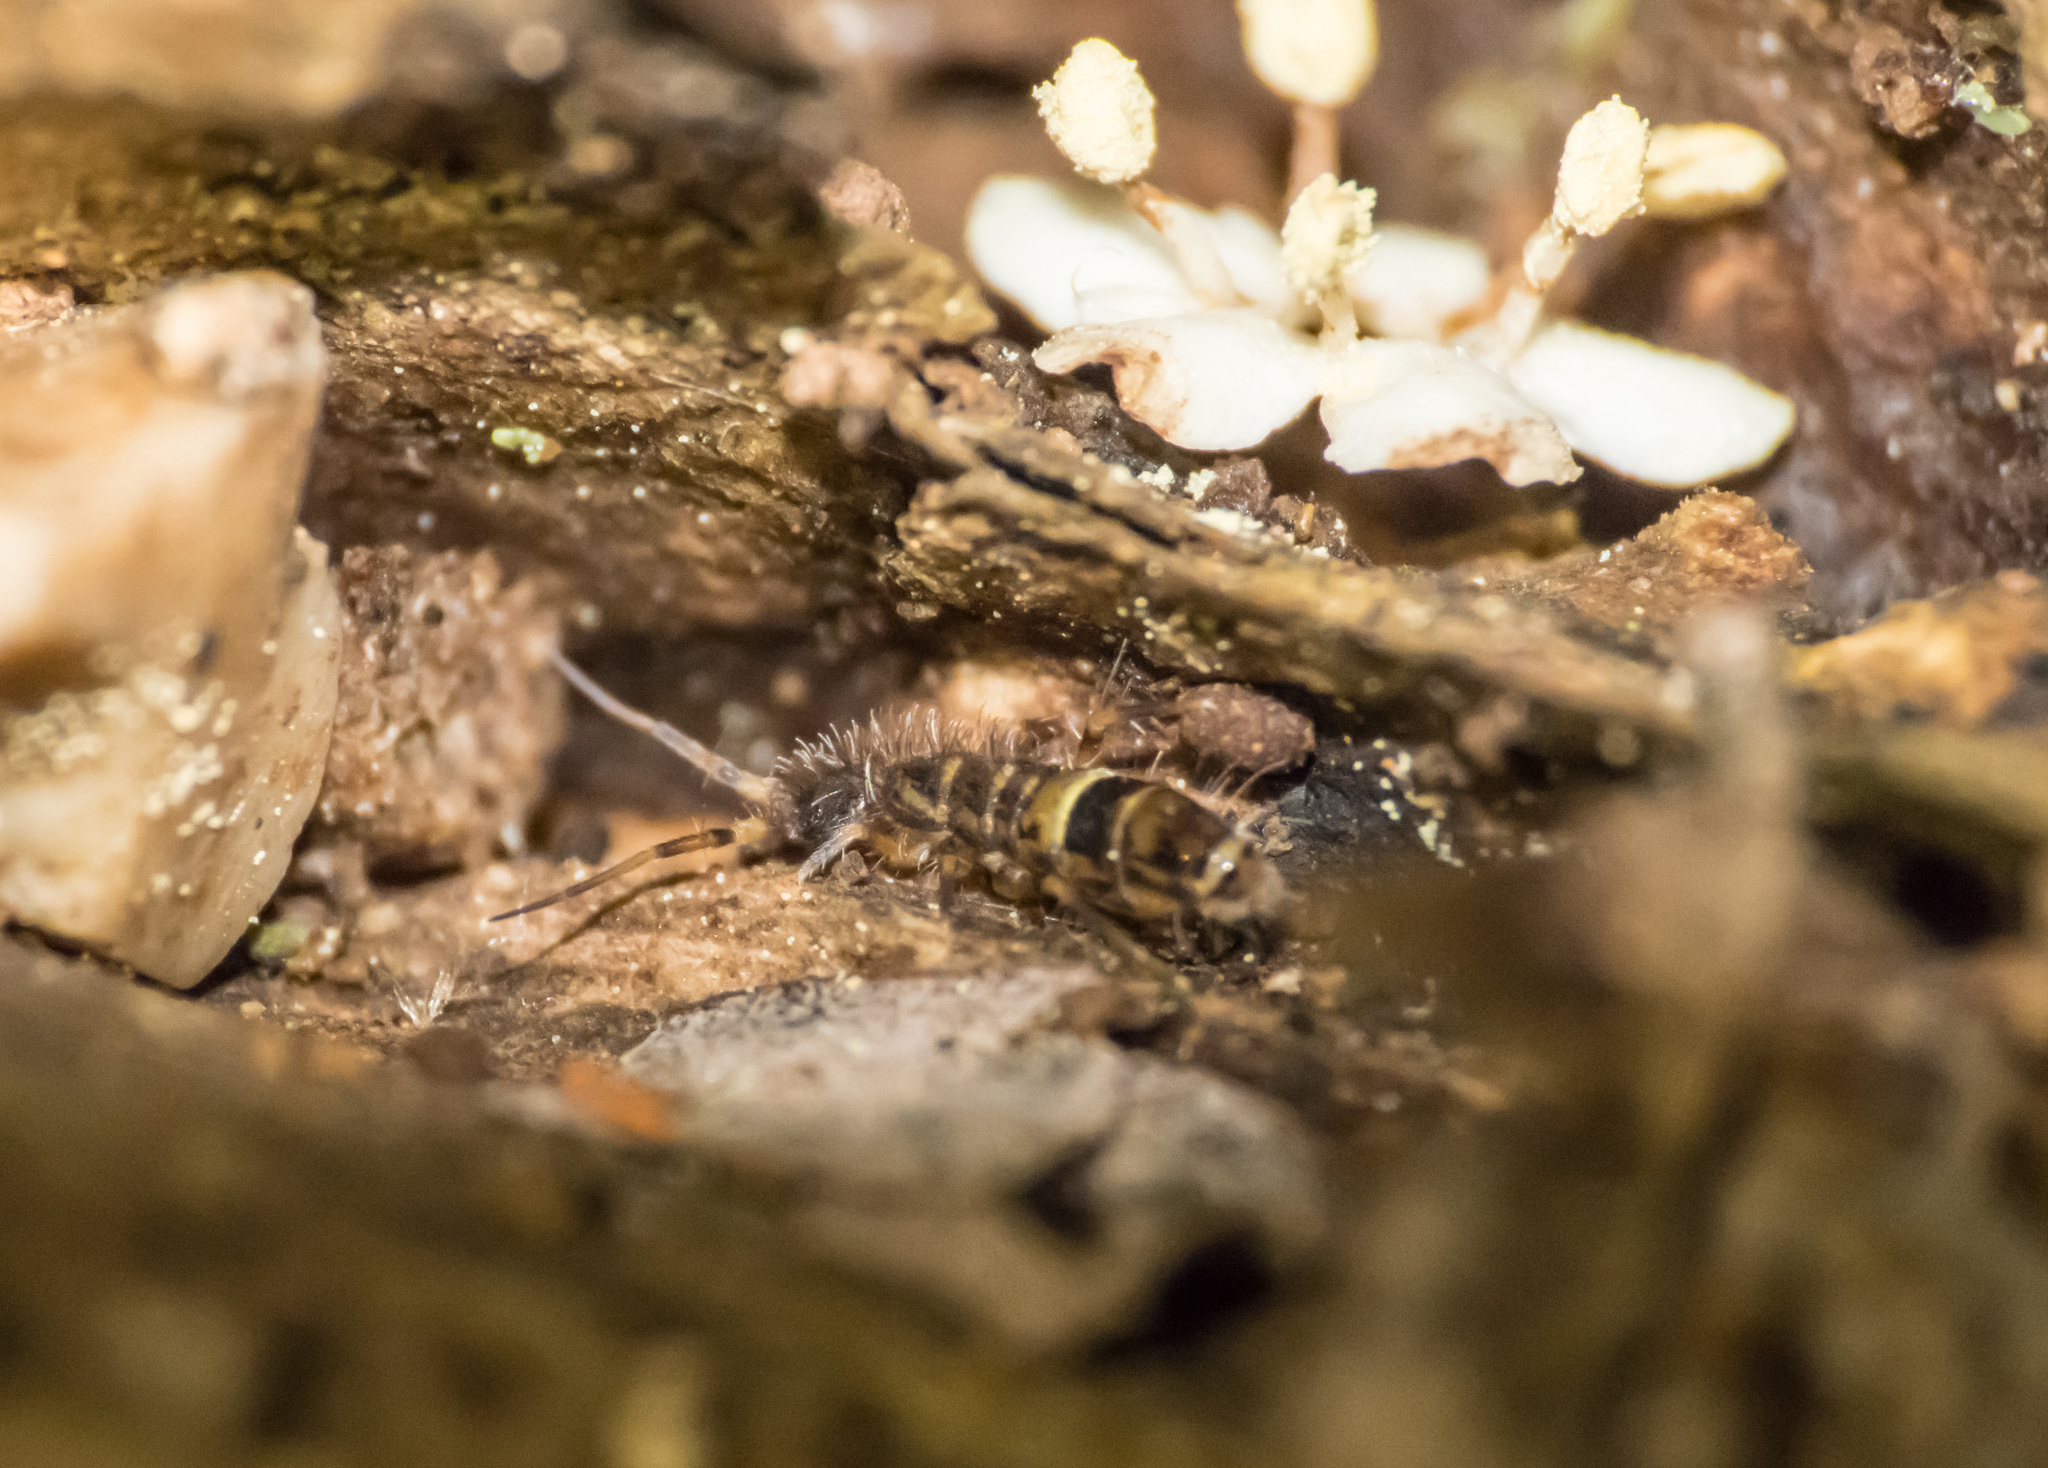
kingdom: Animalia
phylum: Arthropoda
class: Collembola
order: Entomobryomorpha
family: Orchesellidae
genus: Orchesella
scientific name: Orchesella cincta
